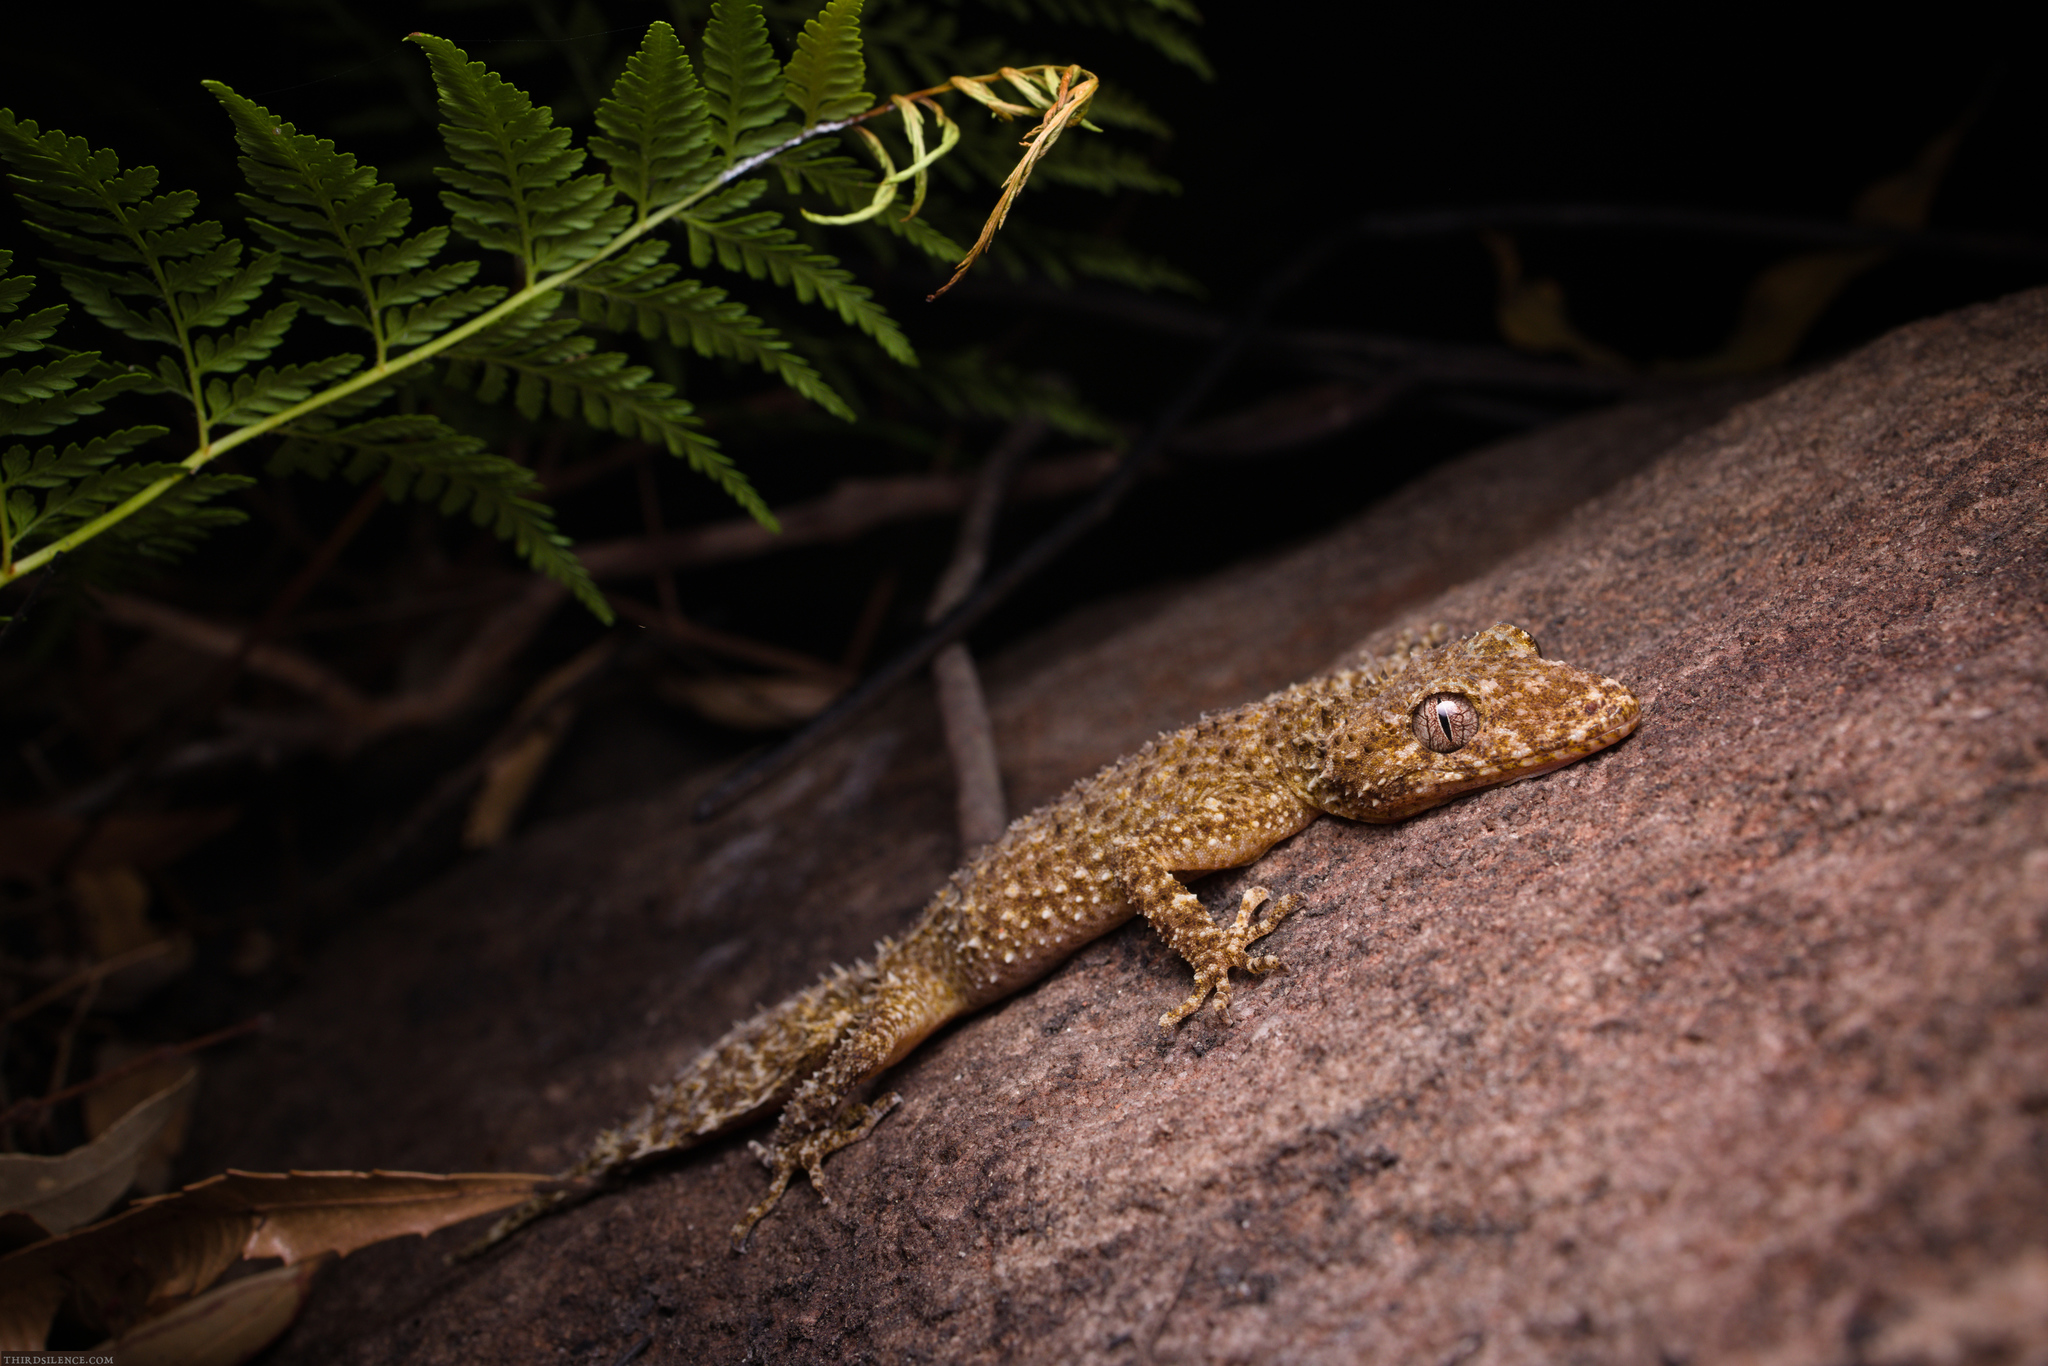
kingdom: Animalia
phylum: Chordata
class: Squamata
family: Carphodactylidae
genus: Phyllurus
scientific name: Phyllurus platurus
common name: Broad-tailed gecko
